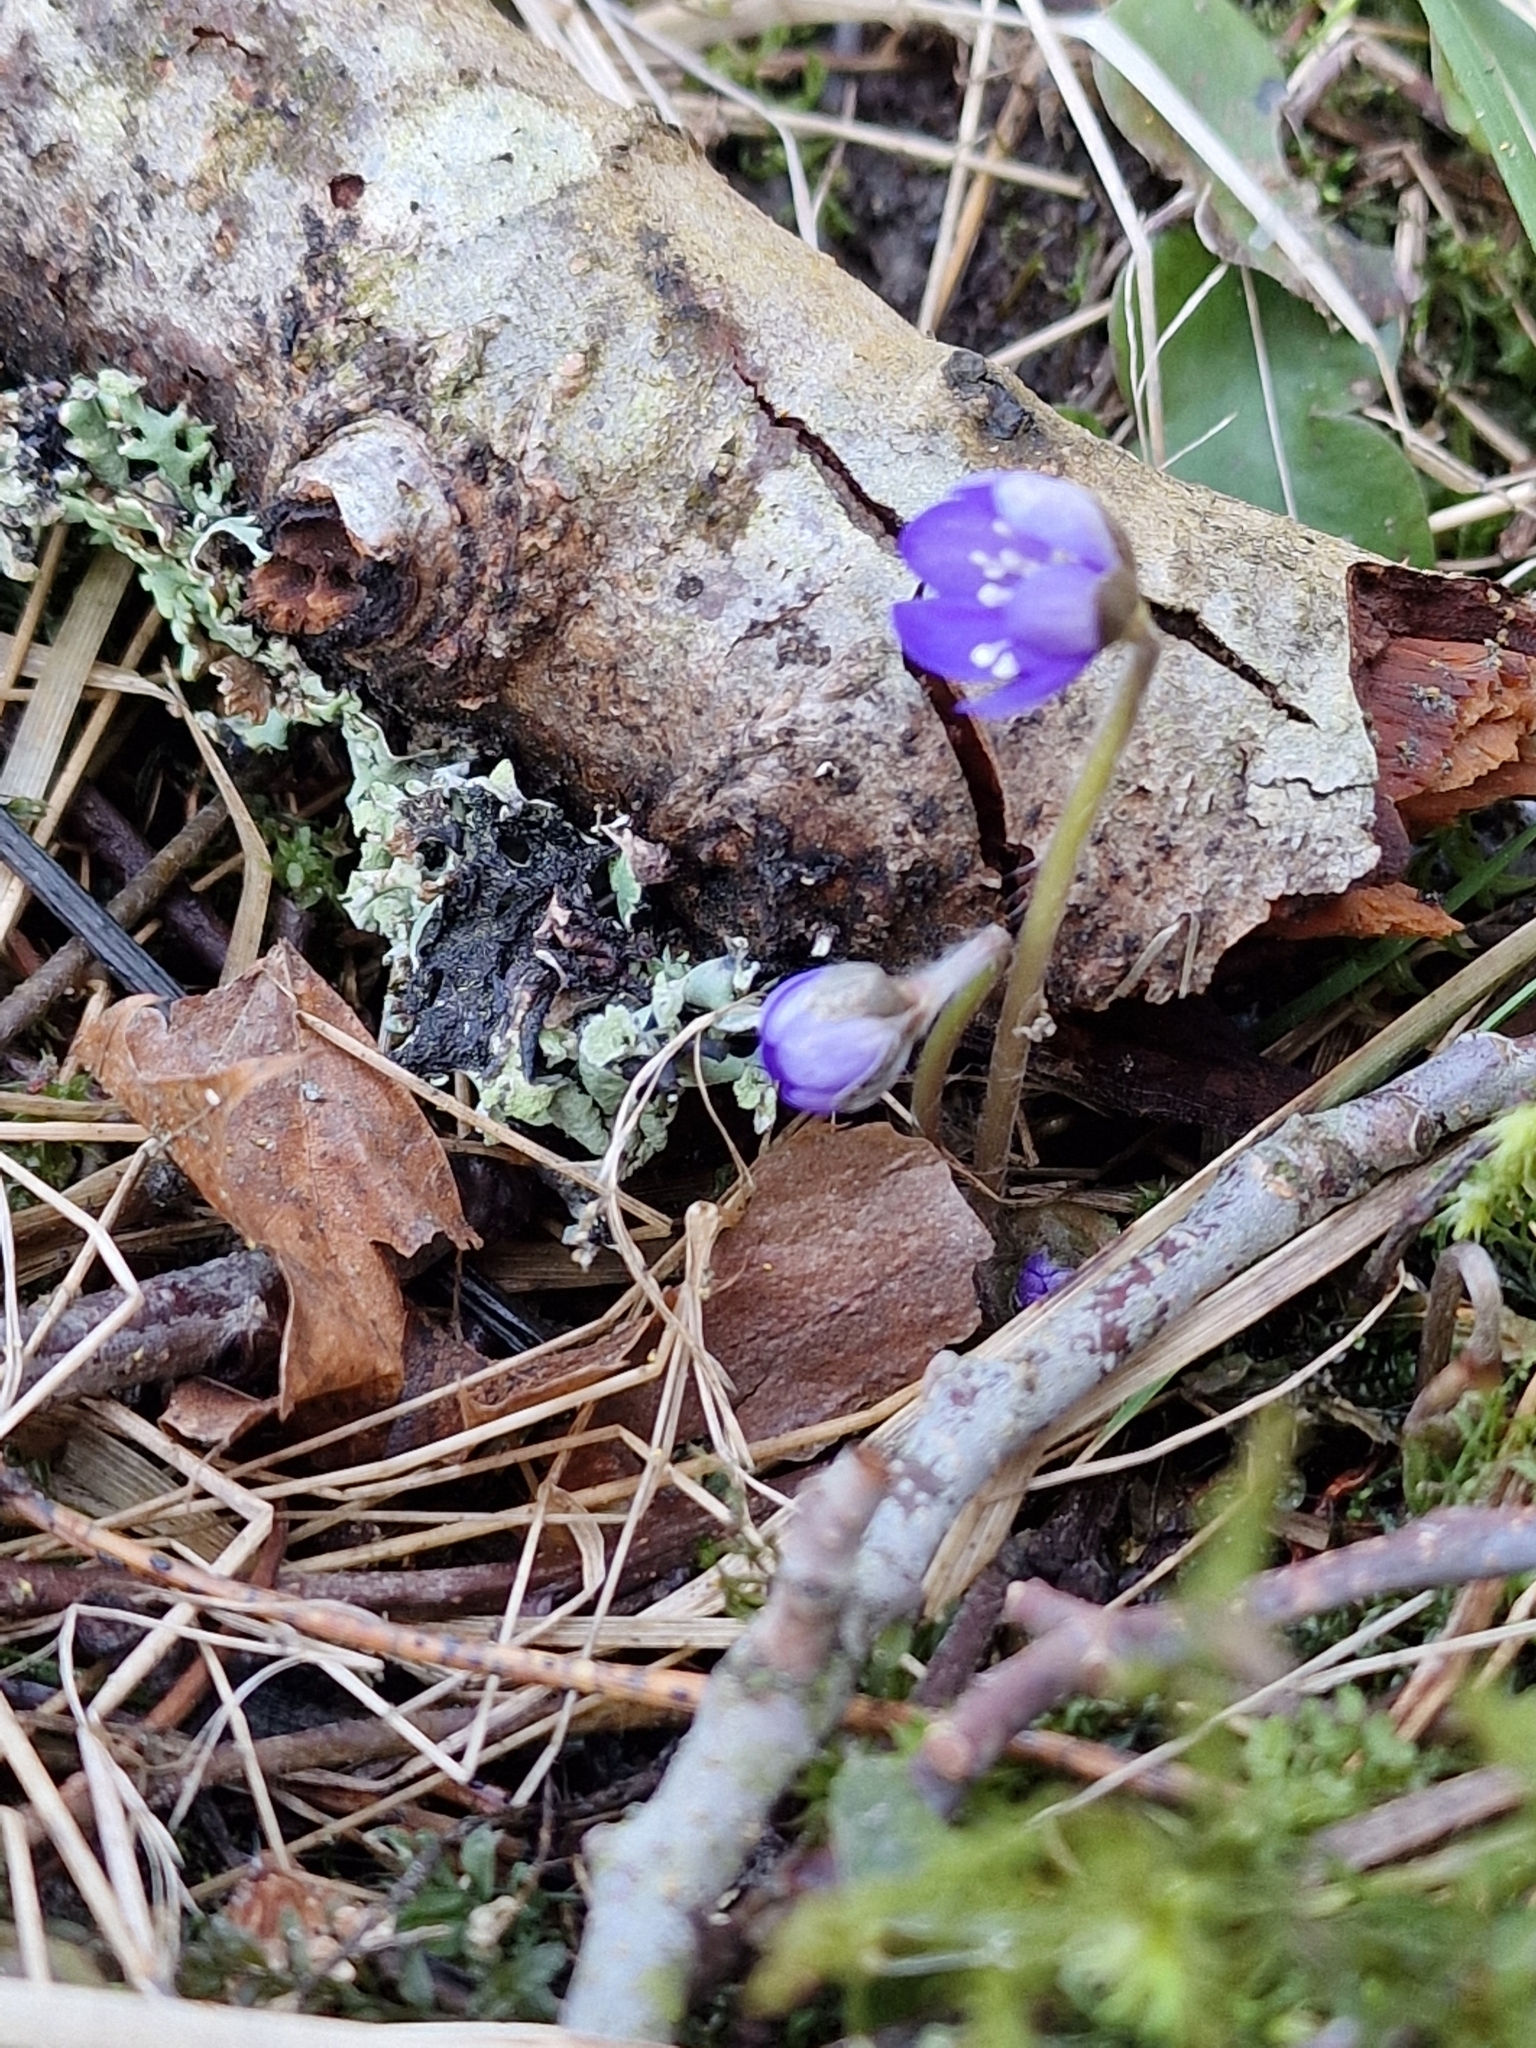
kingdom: Plantae
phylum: Tracheophyta
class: Magnoliopsida
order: Ranunculales
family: Ranunculaceae
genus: Hepatica
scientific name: Hepatica nobilis
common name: Liverleaf
